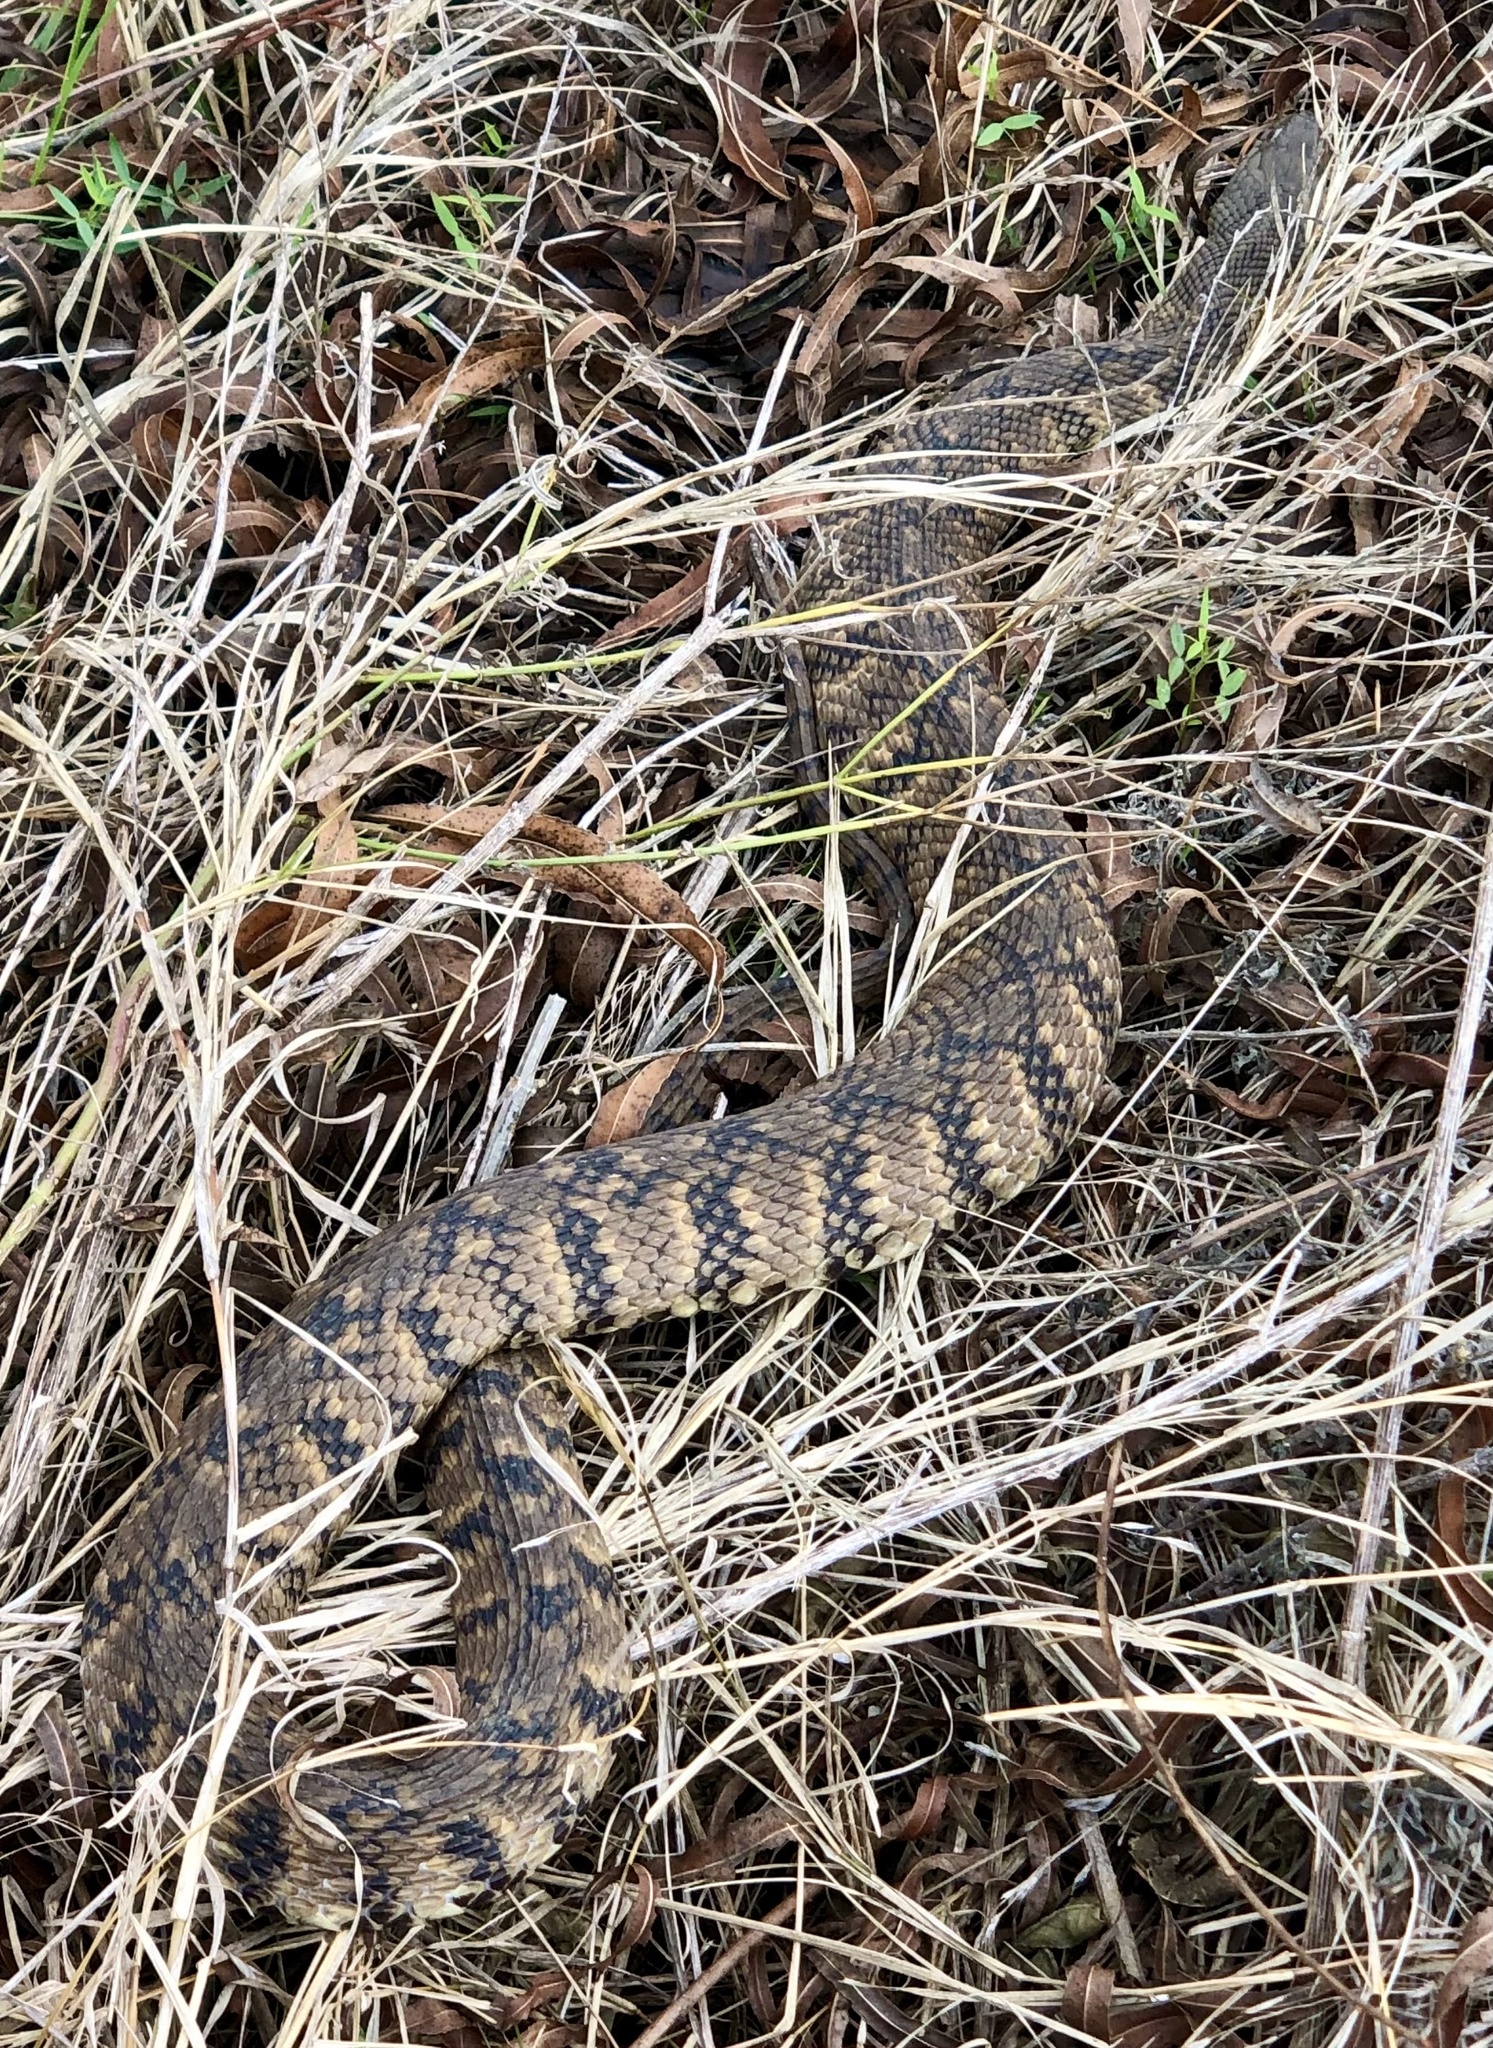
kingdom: Animalia
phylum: Chordata
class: Squamata
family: Colubridae
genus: Nerodia
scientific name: Nerodia rhombifer
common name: Diamondback water snake
